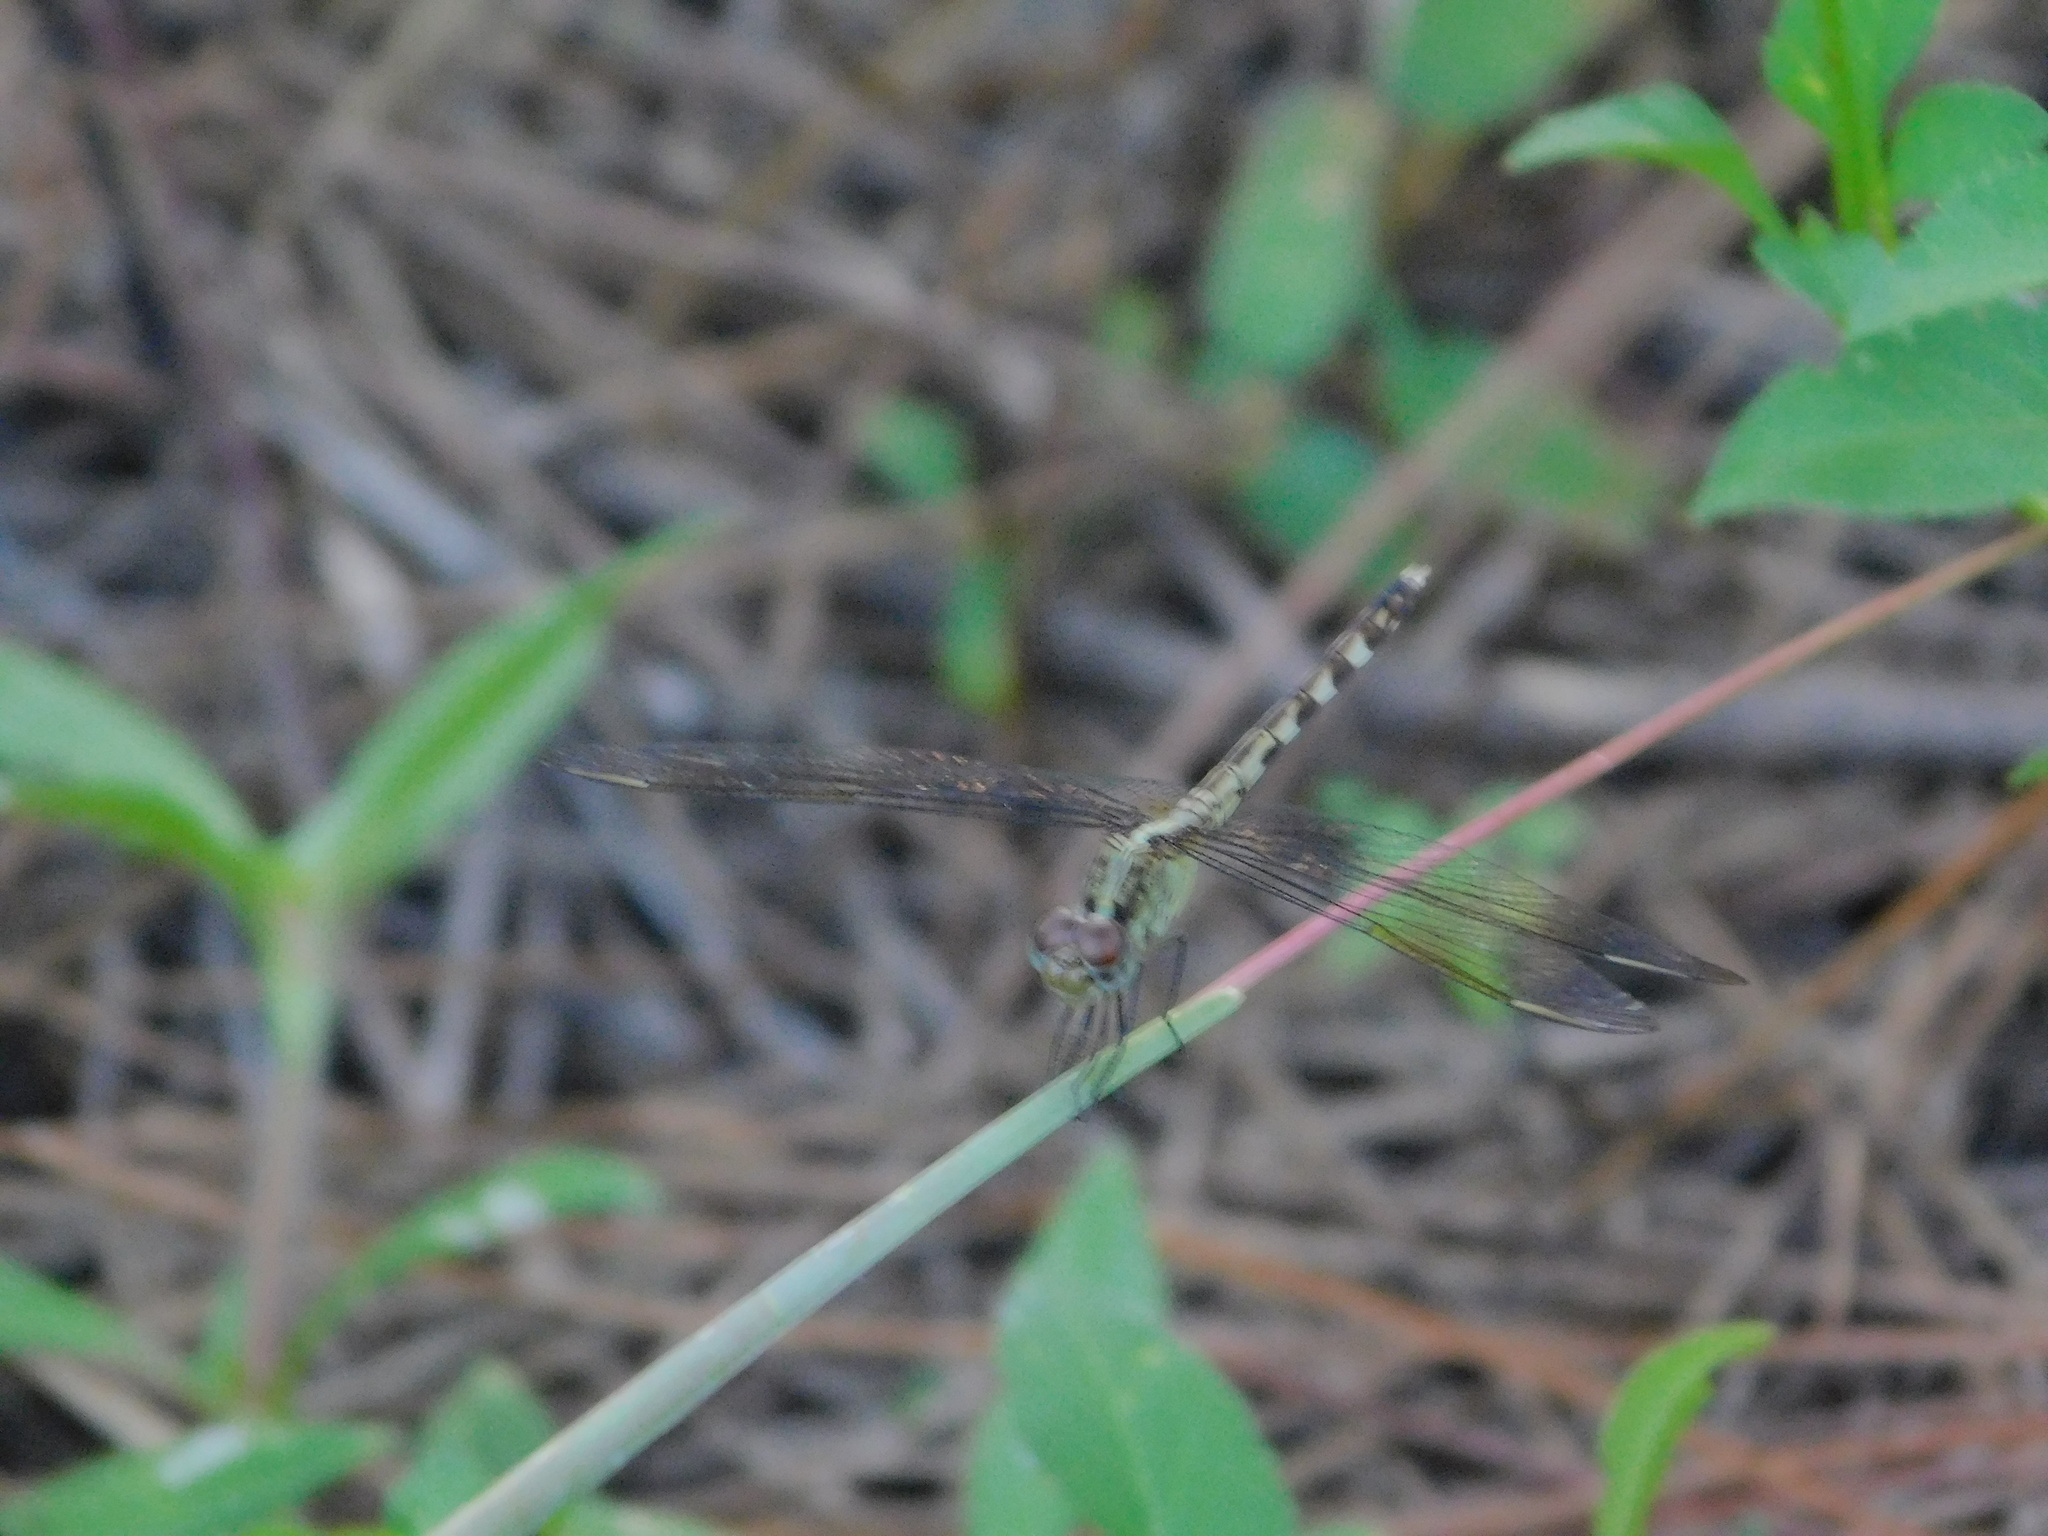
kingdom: Animalia
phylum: Arthropoda
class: Insecta
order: Odonata
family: Libellulidae
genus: Erythrodiplax
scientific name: Erythrodiplax umbrata
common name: Band-winged dragonlet
